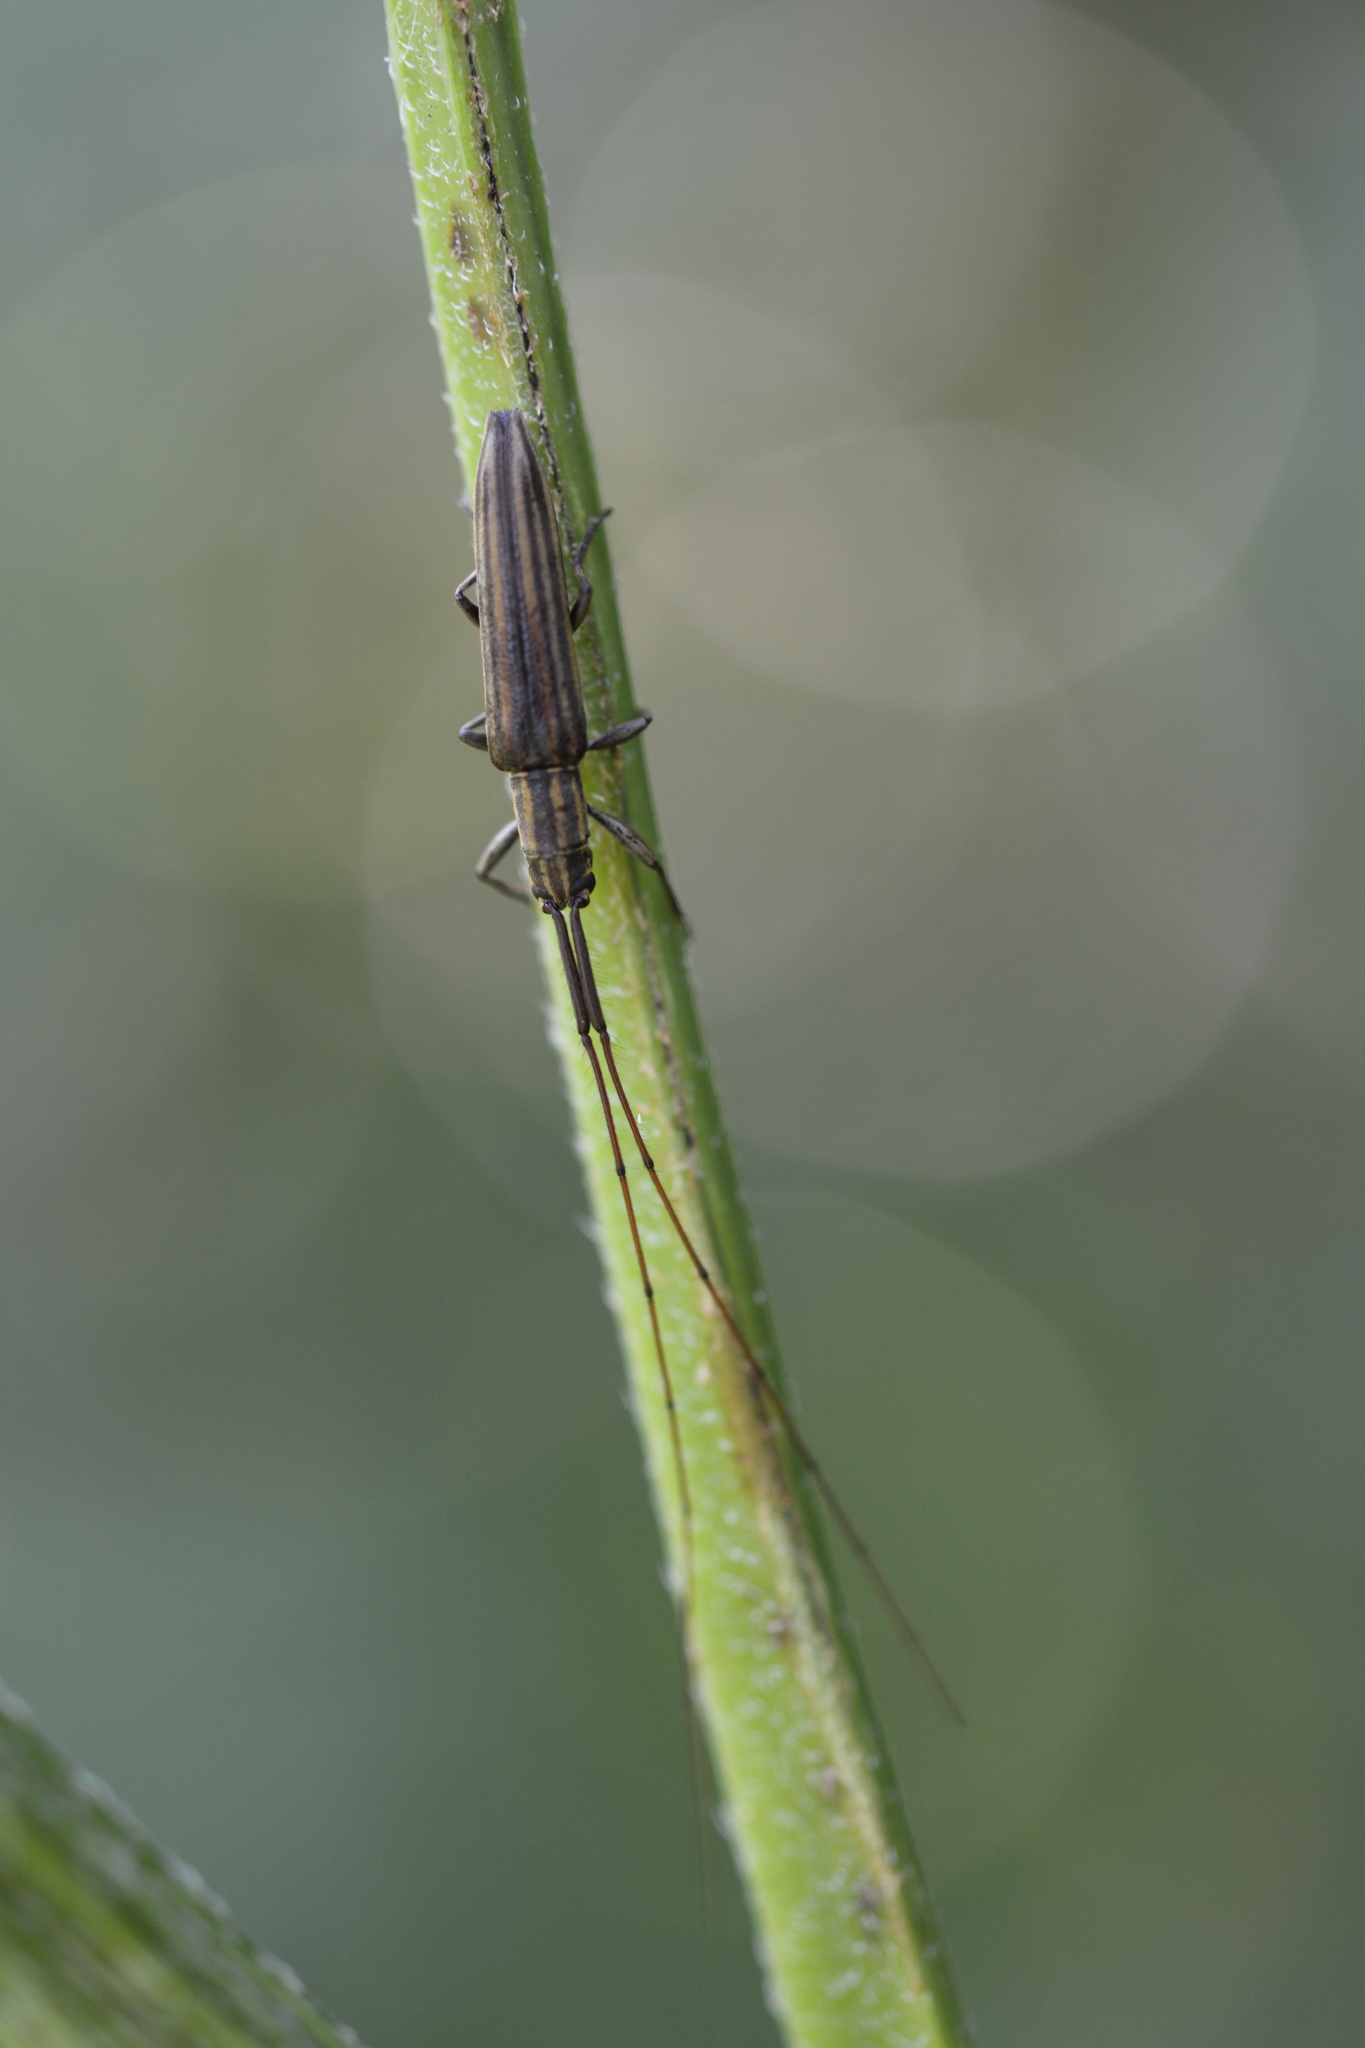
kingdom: Animalia
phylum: Arthropoda
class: Insecta
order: Coleoptera
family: Cerambycidae
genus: Hippopsis
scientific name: Hippopsis
